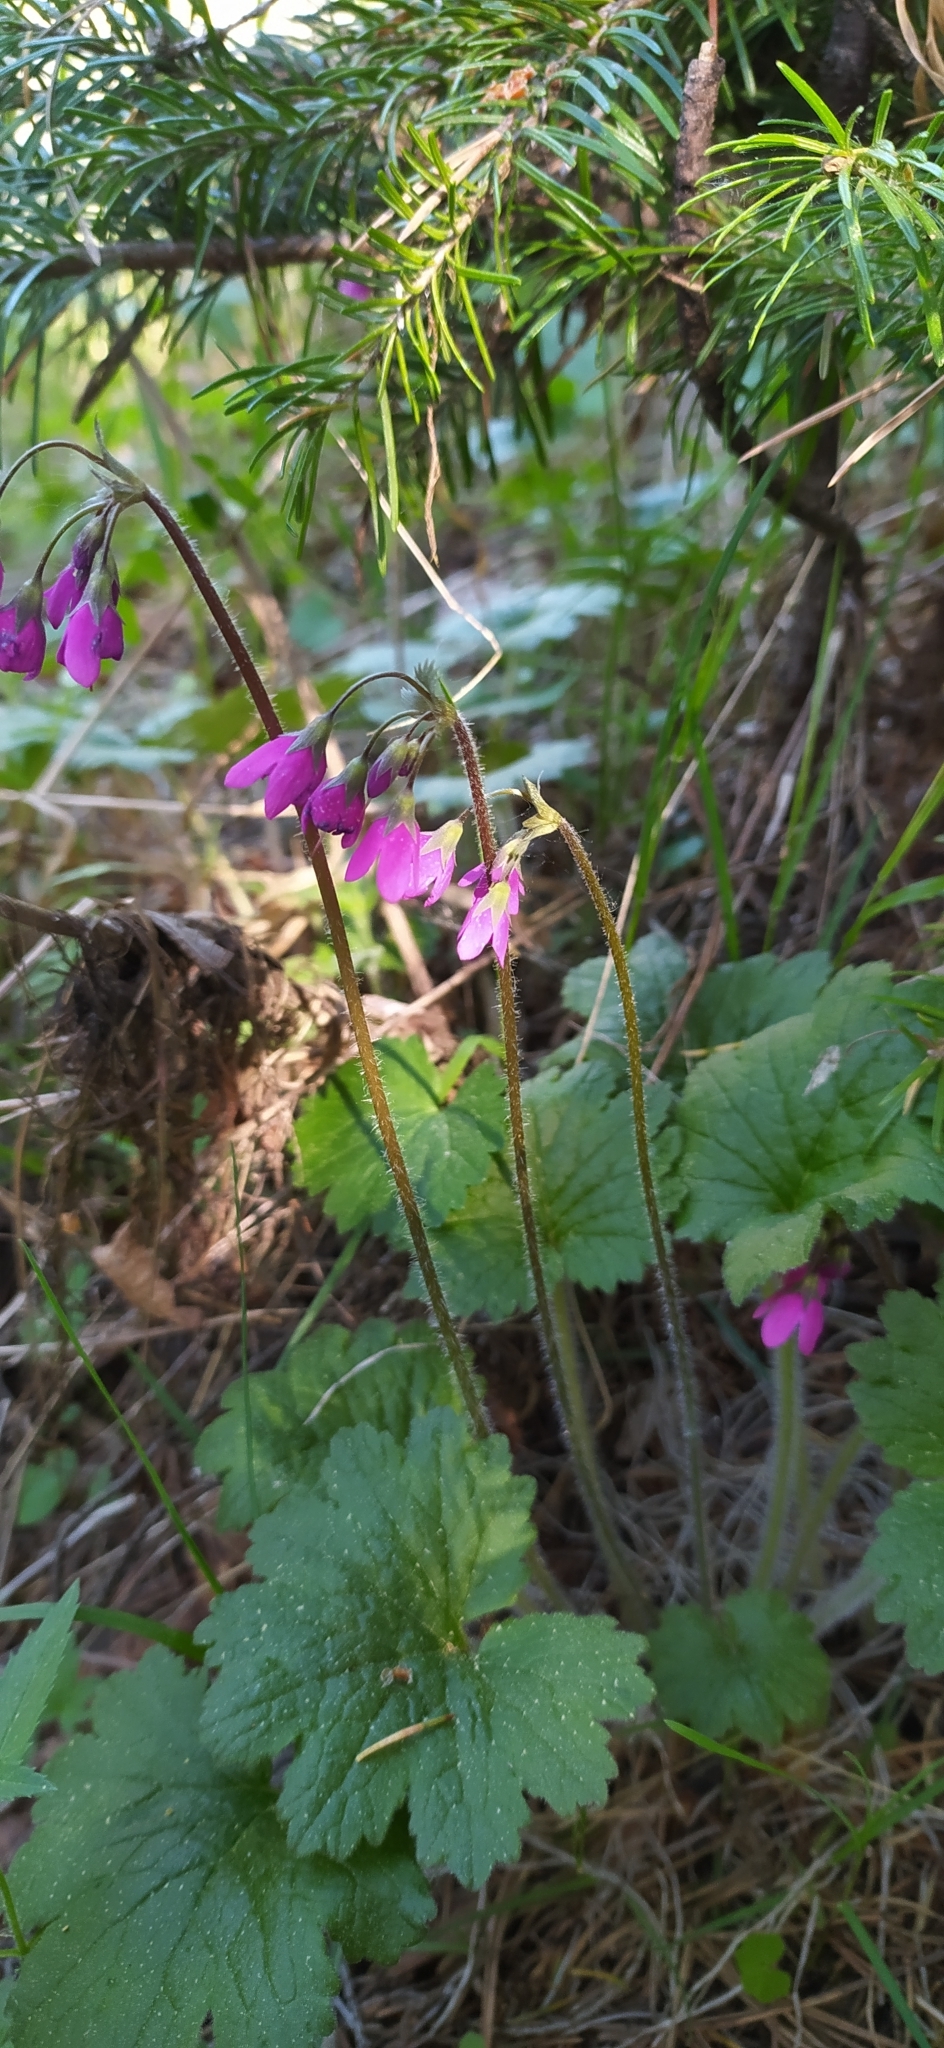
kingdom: Plantae
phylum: Tracheophyta
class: Magnoliopsida
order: Ericales
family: Primulaceae
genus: Primula
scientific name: Primula matthioli
